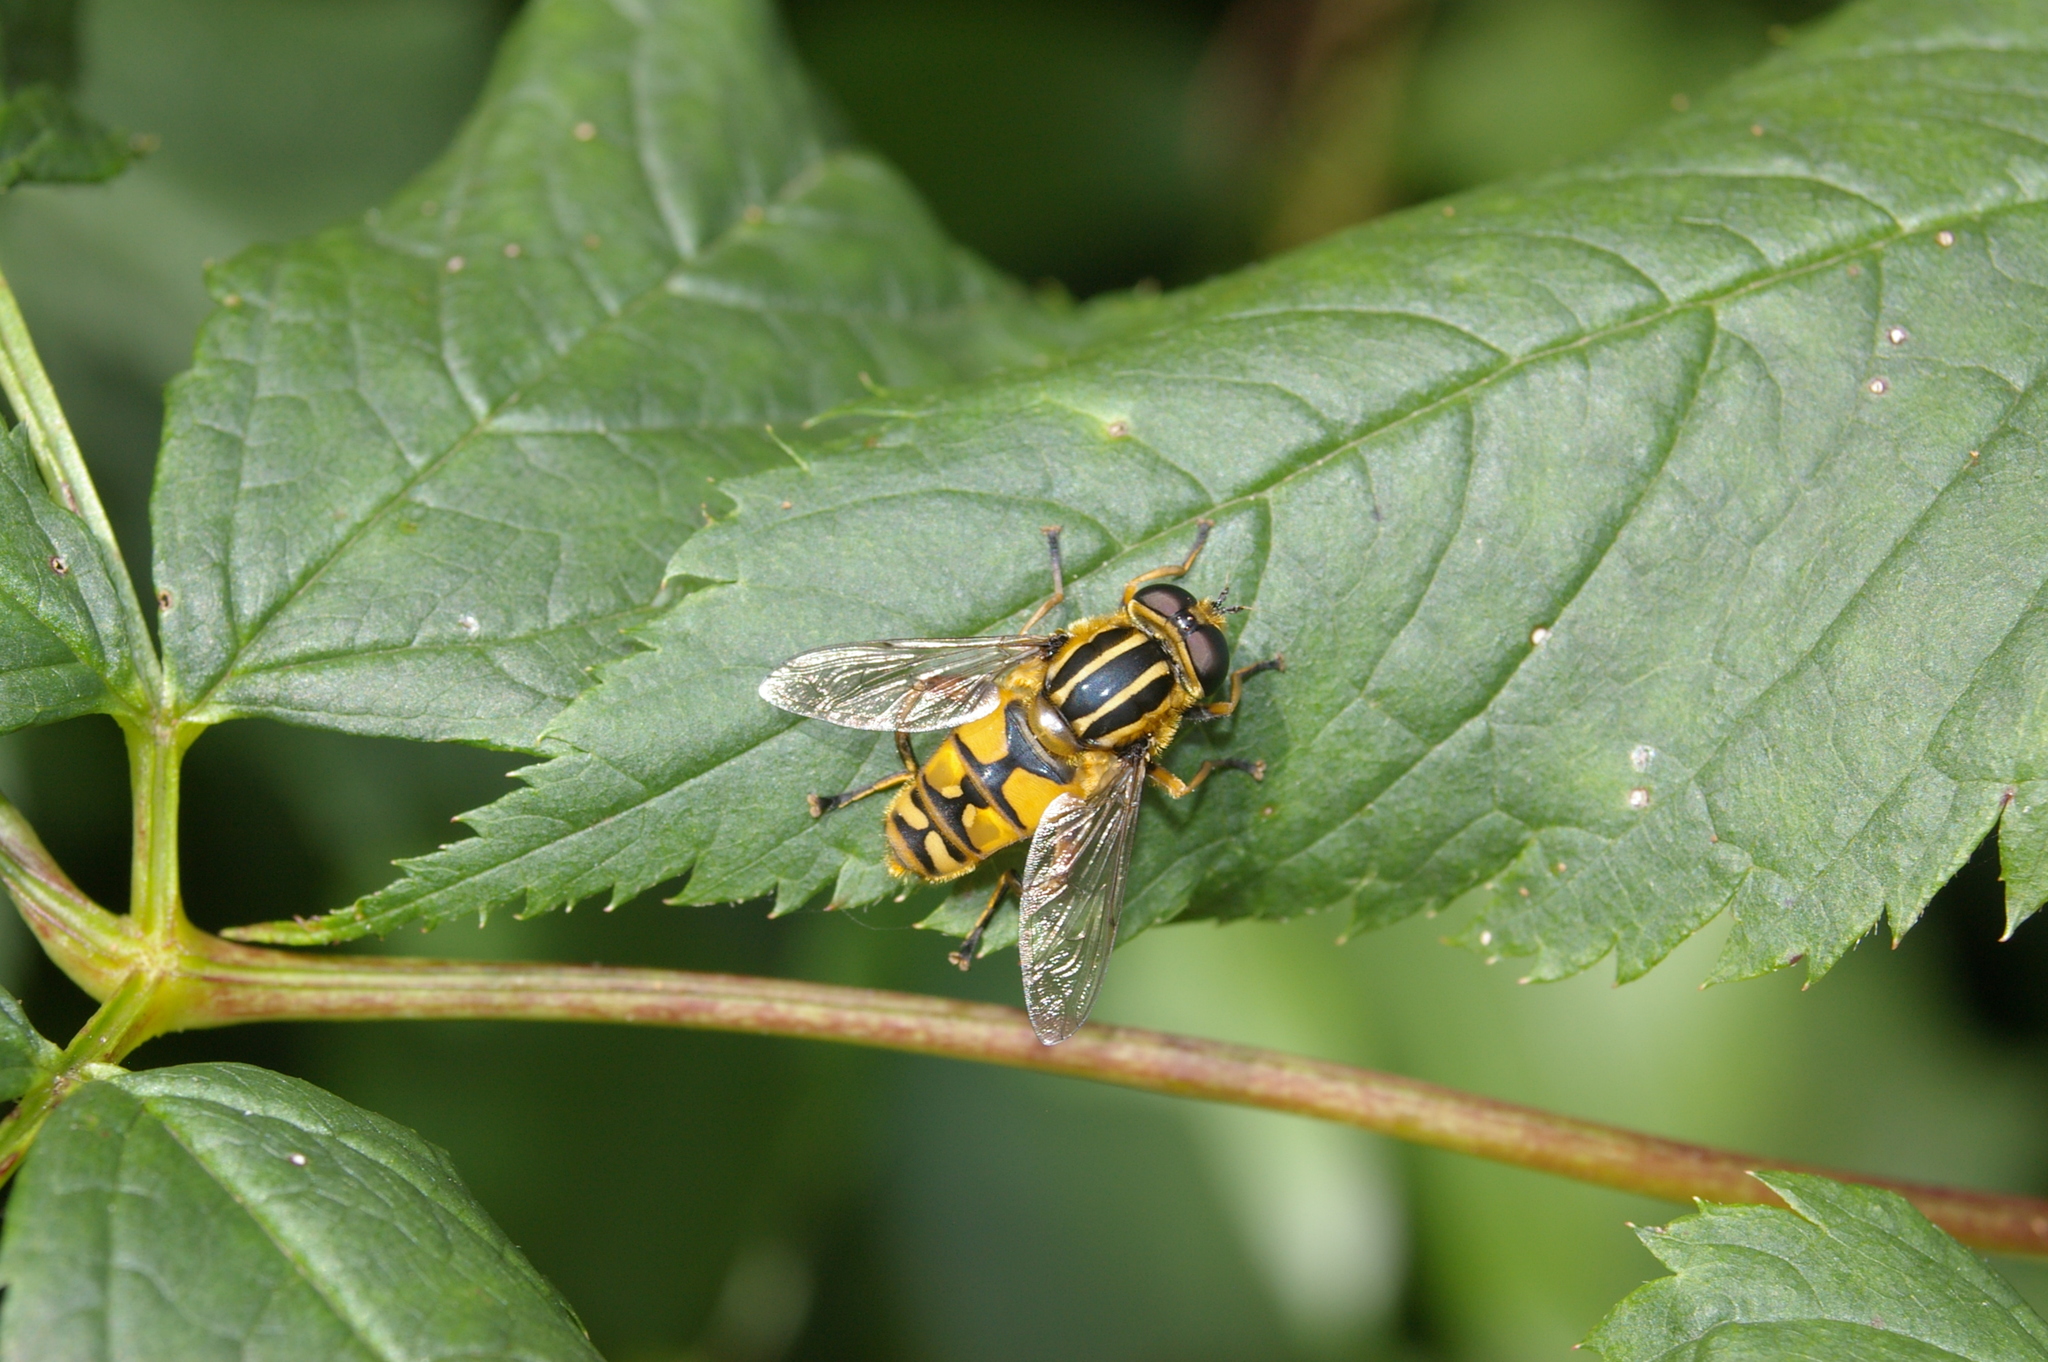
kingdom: Animalia
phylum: Arthropoda
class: Insecta
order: Diptera
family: Syrphidae
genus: Helophilus
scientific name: Helophilus pendulus
